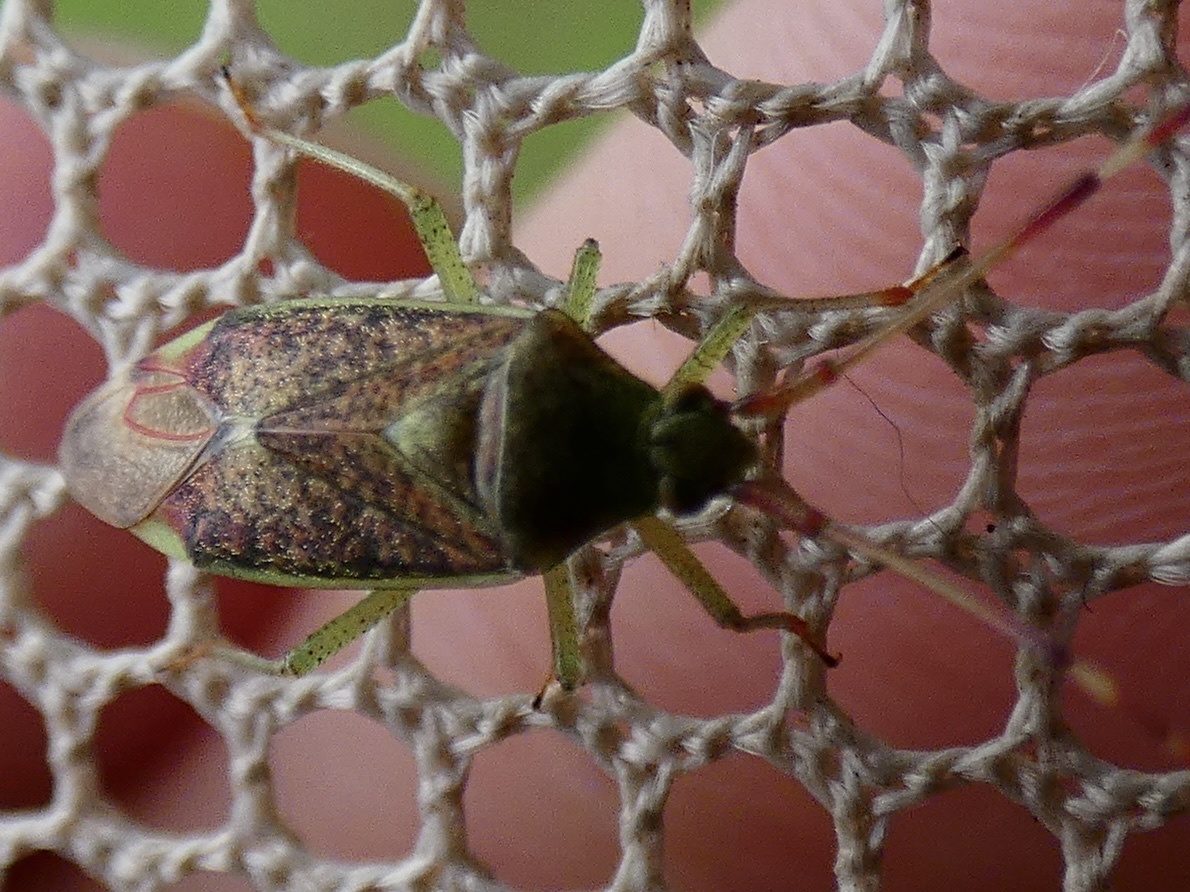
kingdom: Animalia
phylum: Arthropoda
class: Insecta
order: Hemiptera
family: Miridae
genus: Pantilius
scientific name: Pantilius tunicatus
